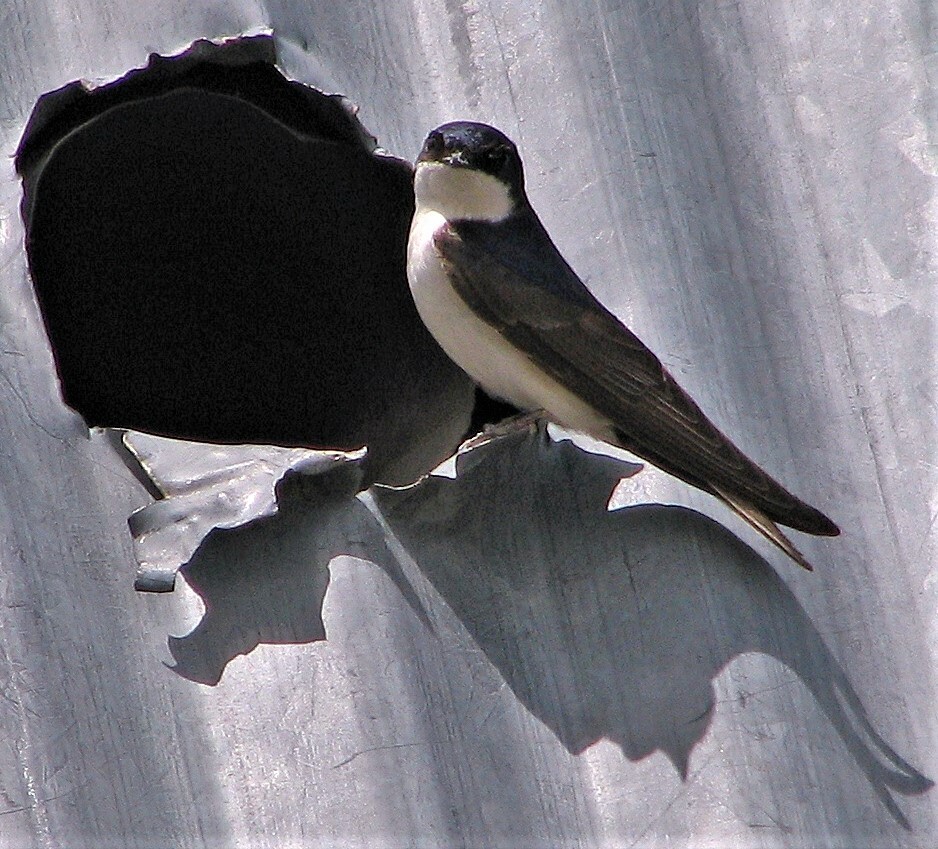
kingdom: Animalia
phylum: Chordata
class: Aves
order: Passeriformes
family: Hirundinidae
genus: Notiochelidon
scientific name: Notiochelidon cyanoleuca
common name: Blue-and-white swallow
